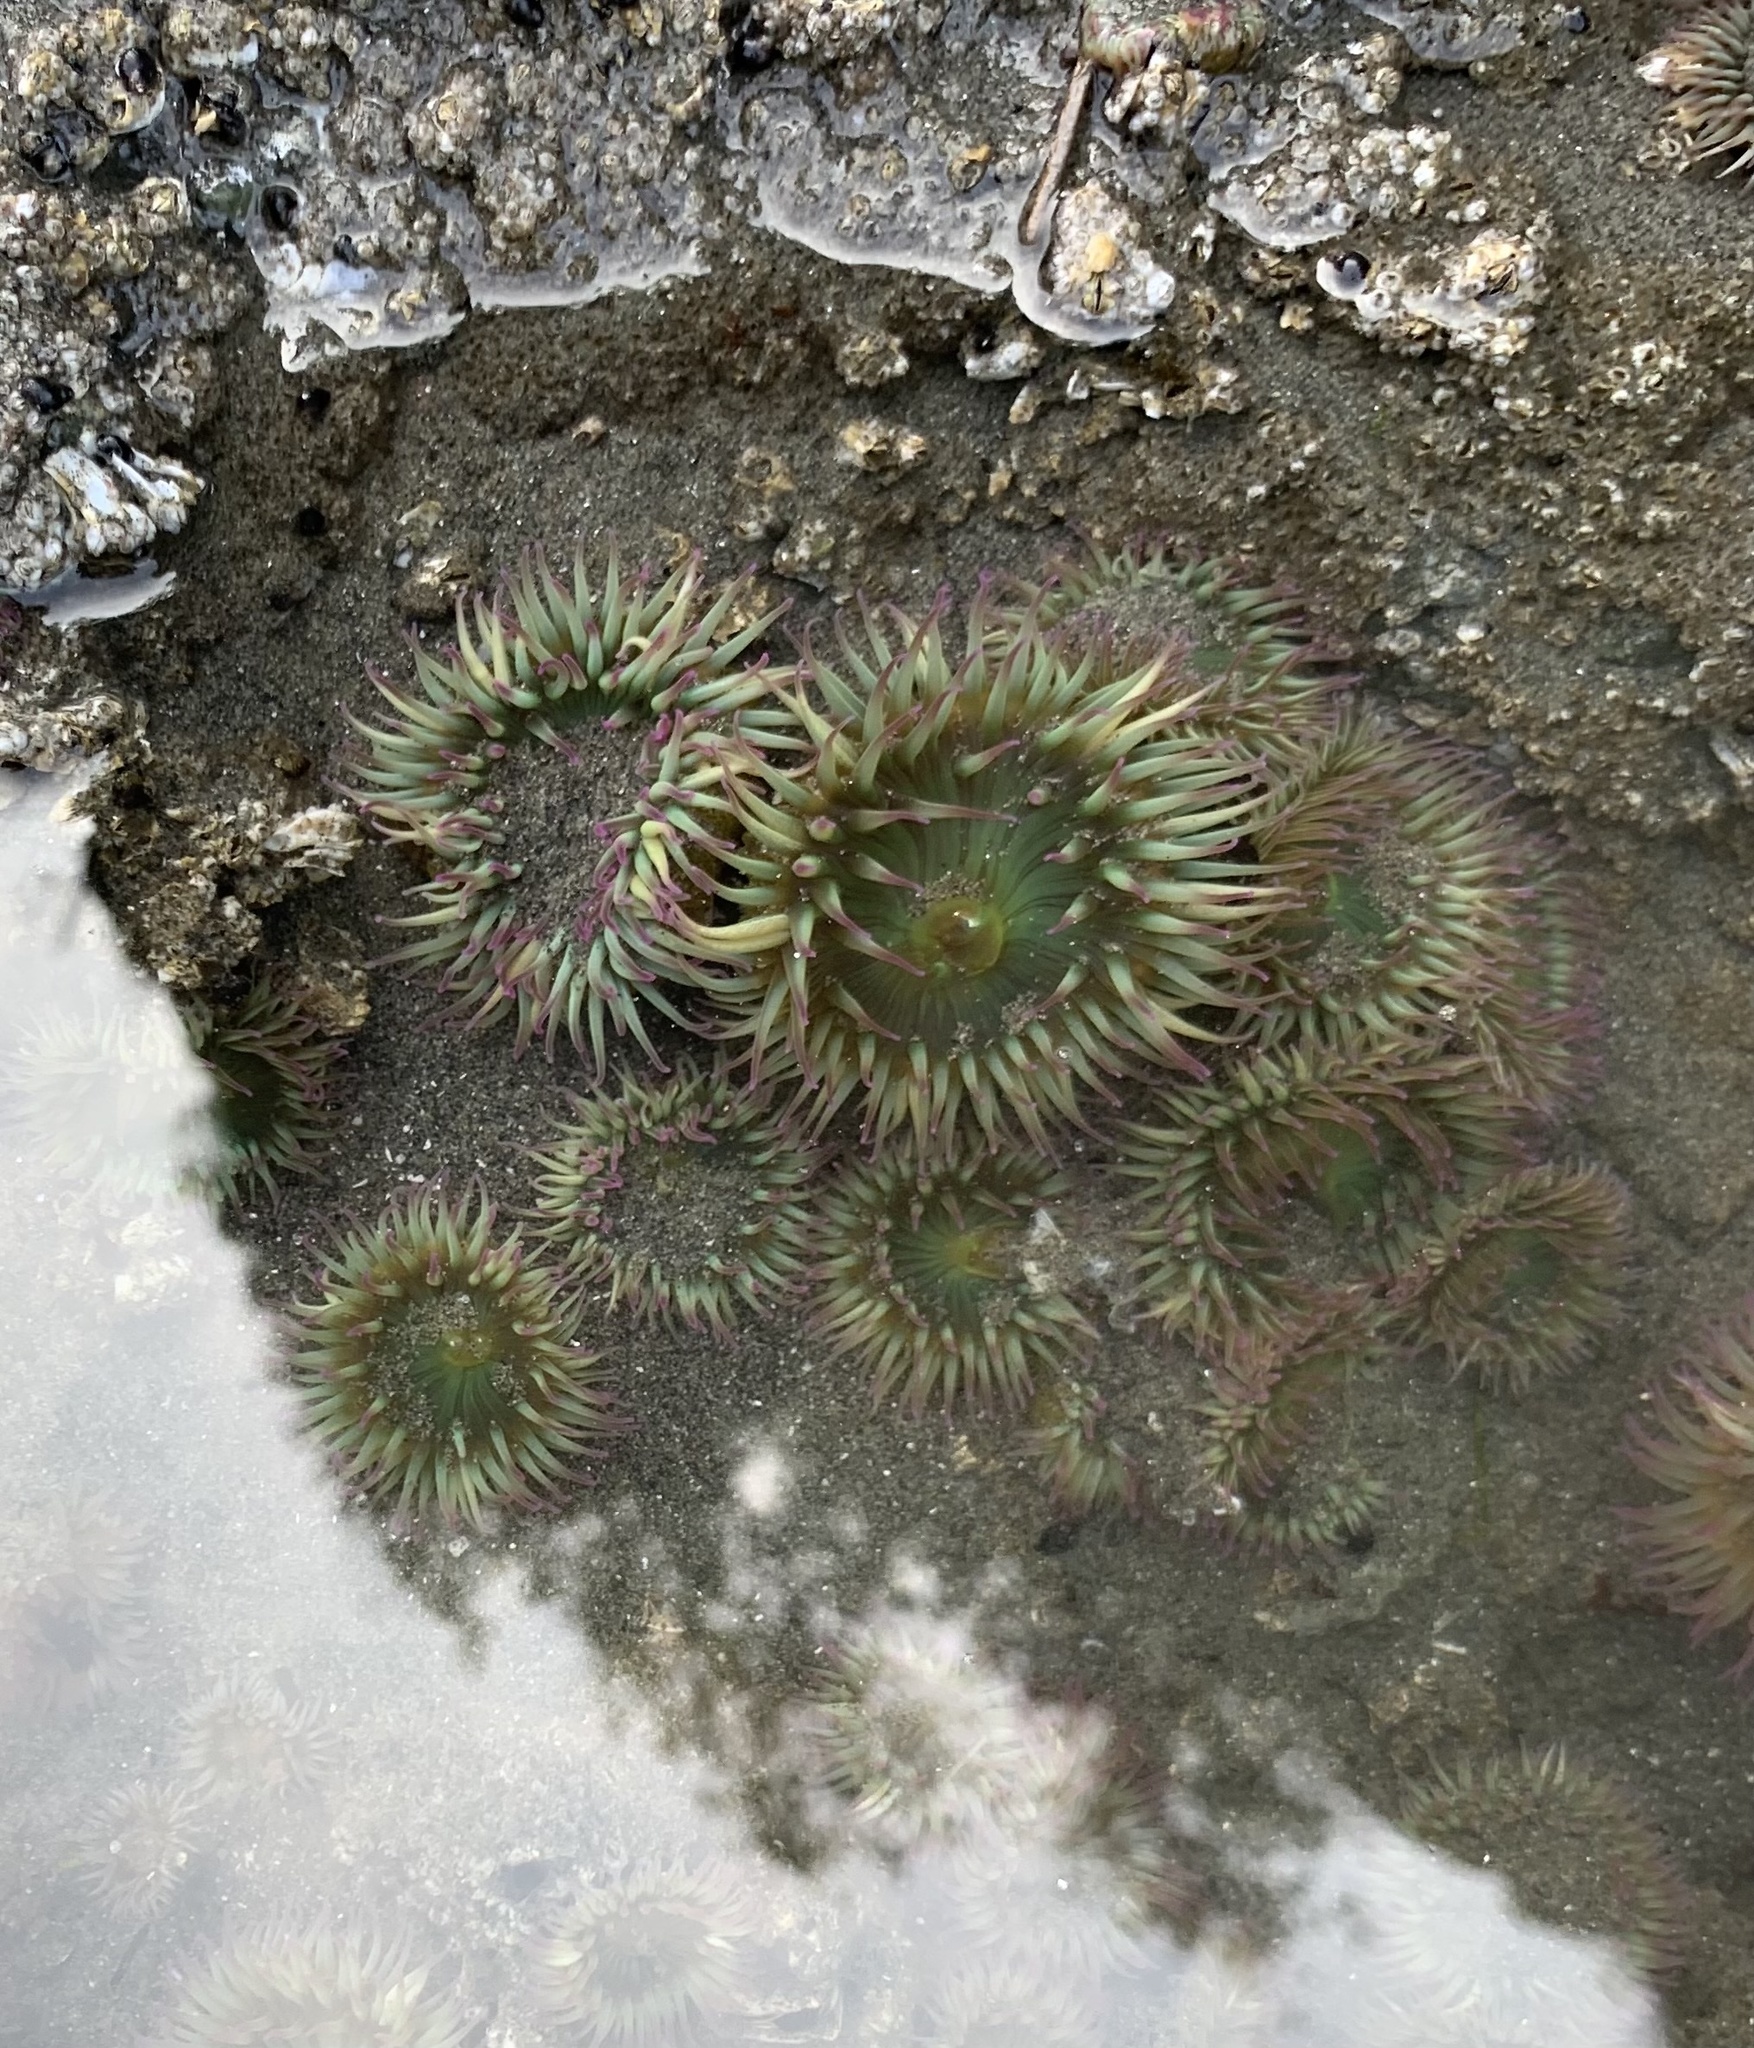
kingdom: Animalia
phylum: Cnidaria
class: Anthozoa
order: Actiniaria
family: Actiniidae
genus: Anthopleura
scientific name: Anthopleura elegantissima
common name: Clonal anemone
